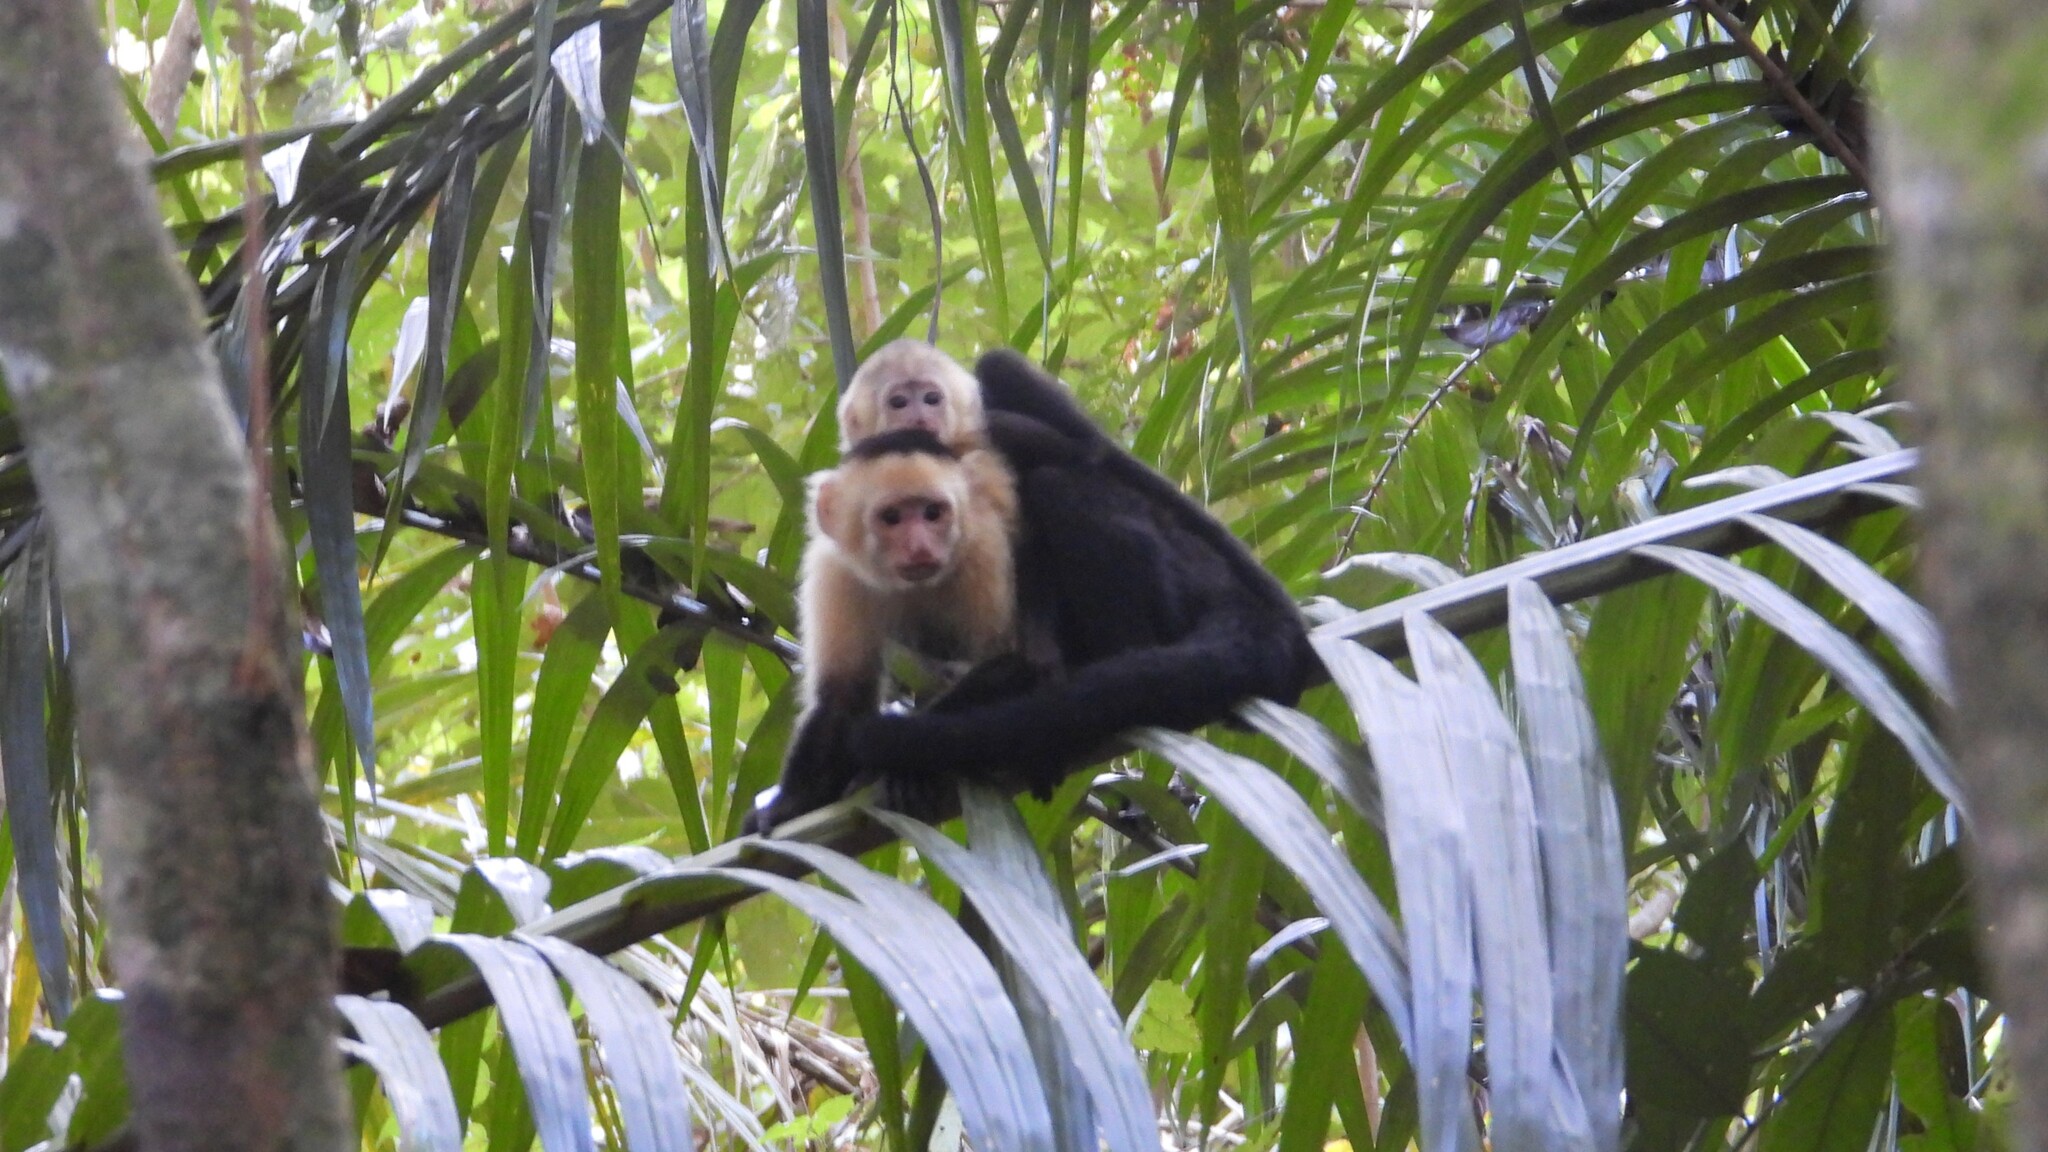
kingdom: Animalia
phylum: Chordata
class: Mammalia
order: Primates
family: Cebidae
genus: Cebus
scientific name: Cebus imitator
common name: Panamanian white-faced capuchin
